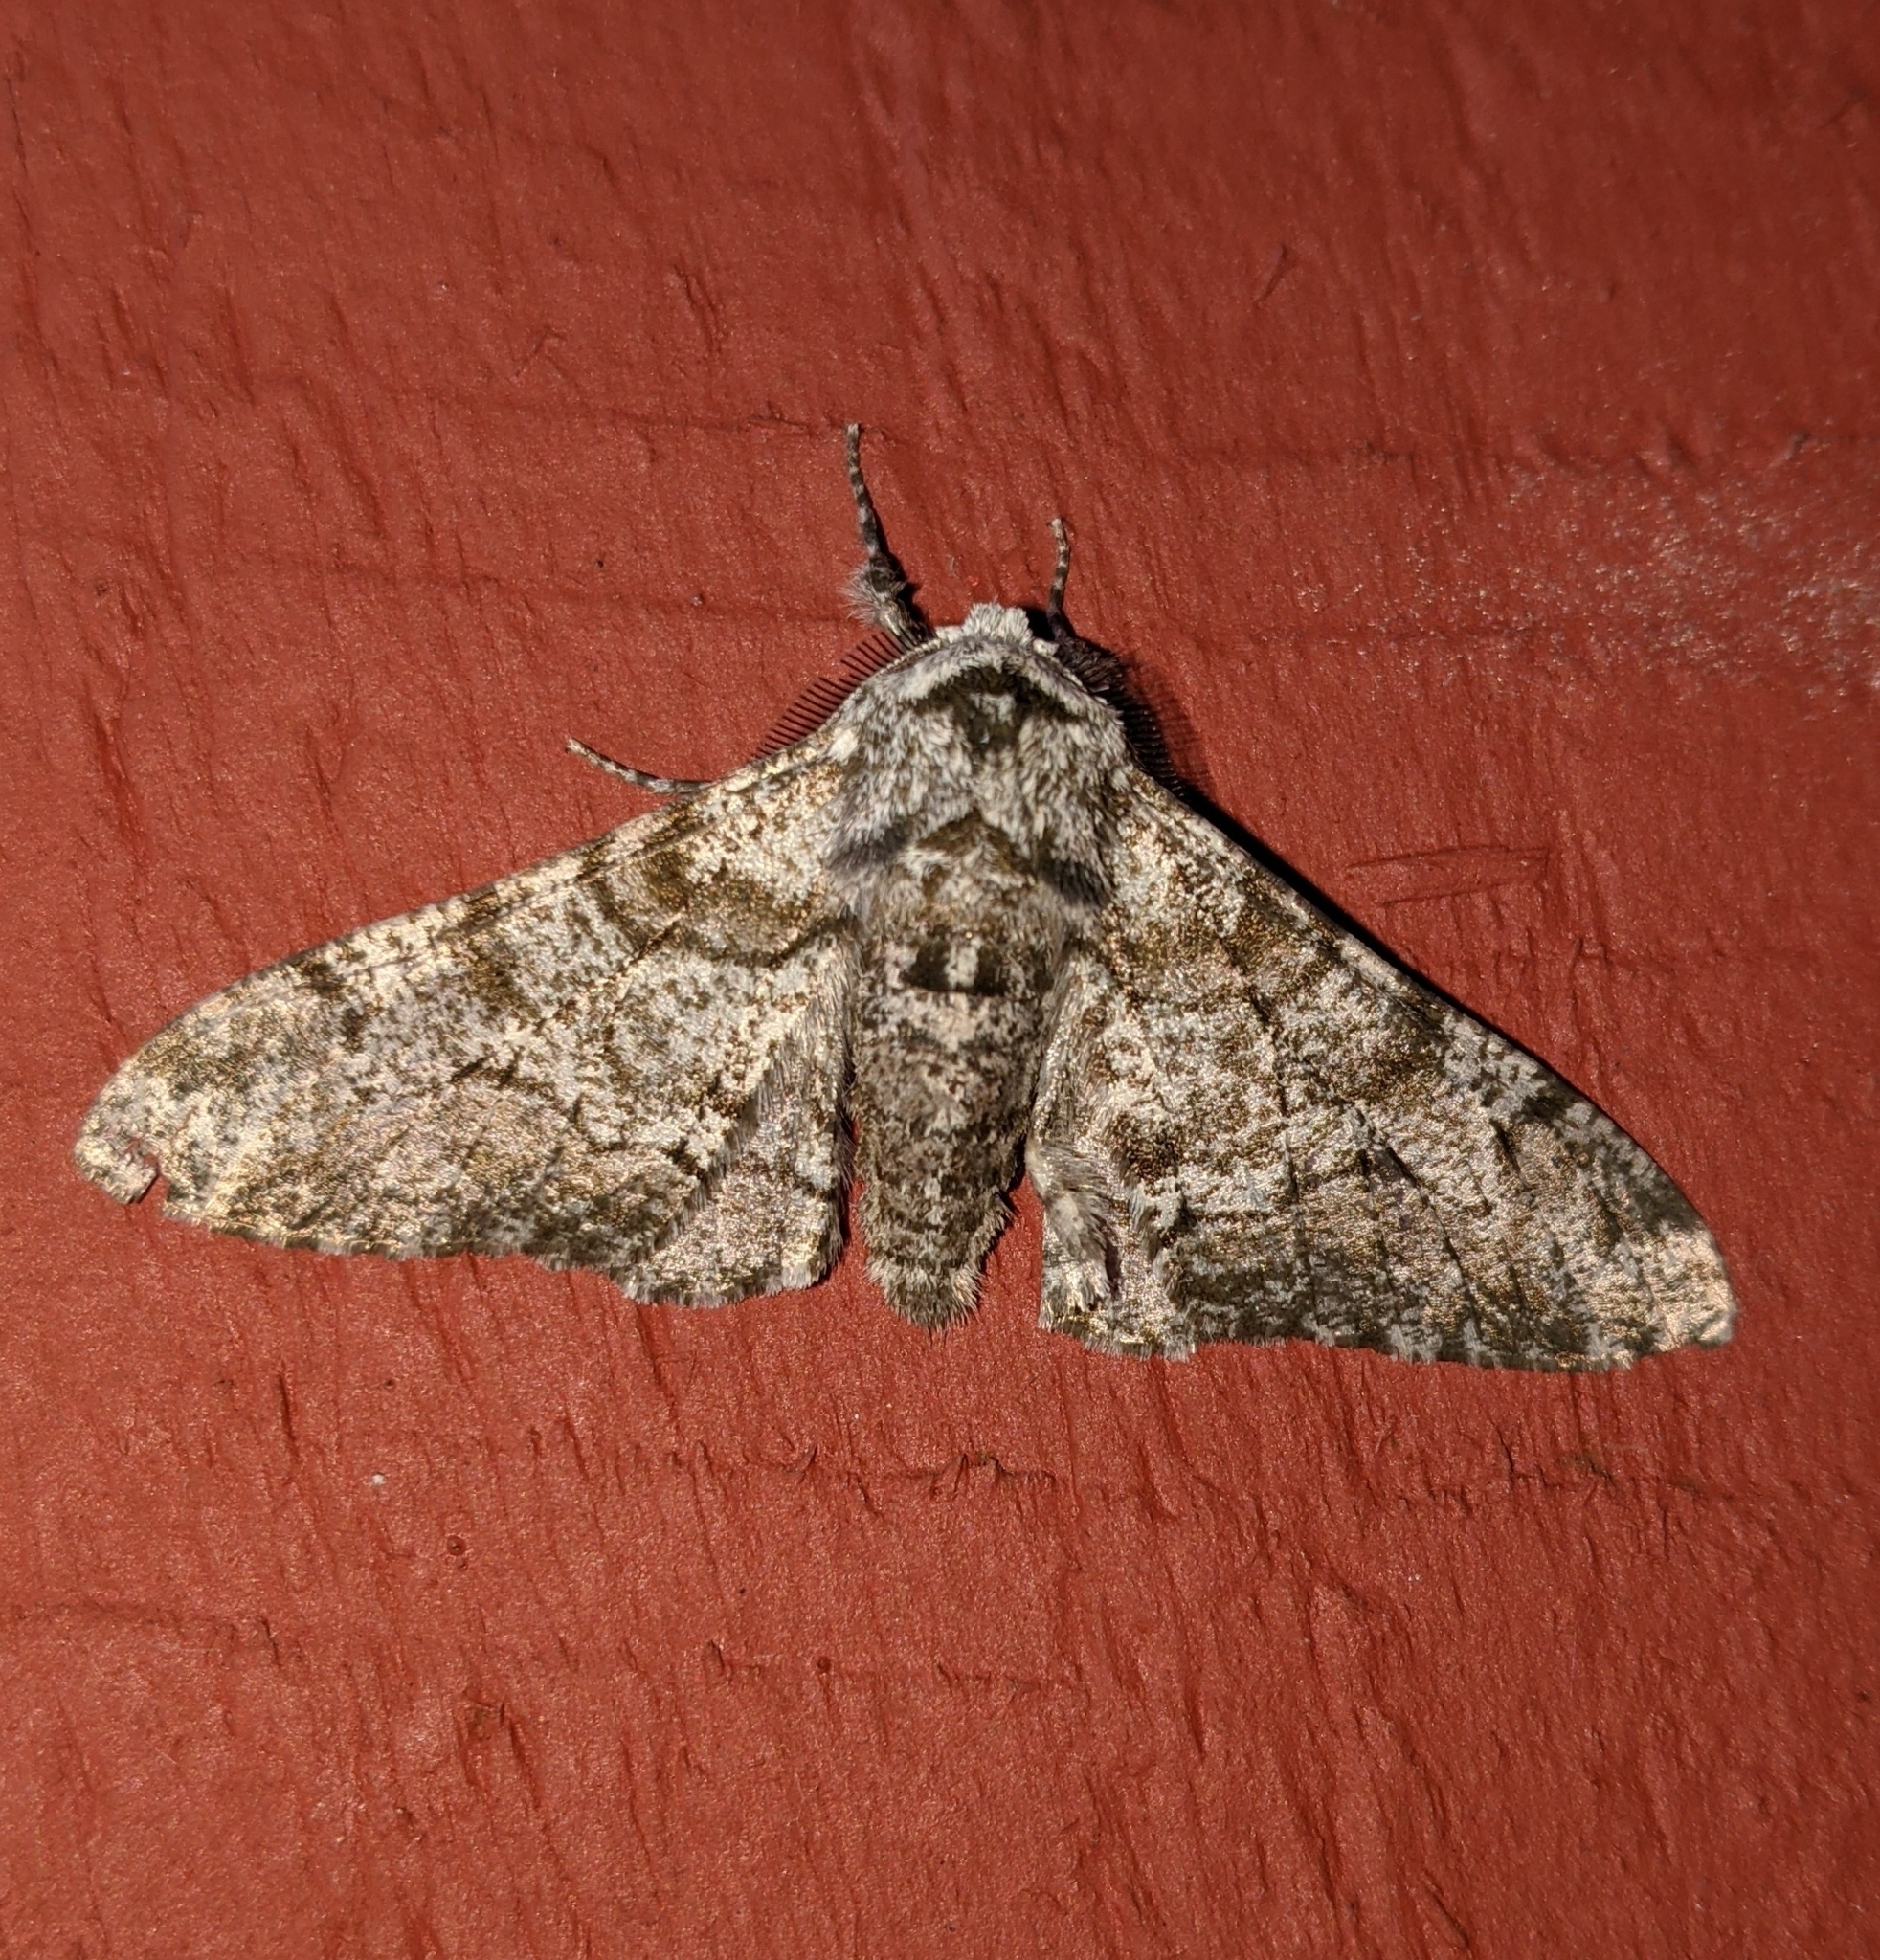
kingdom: Animalia
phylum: Arthropoda
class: Insecta
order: Lepidoptera
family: Geometridae
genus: Biston
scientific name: Biston betularia
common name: Peppered moth
